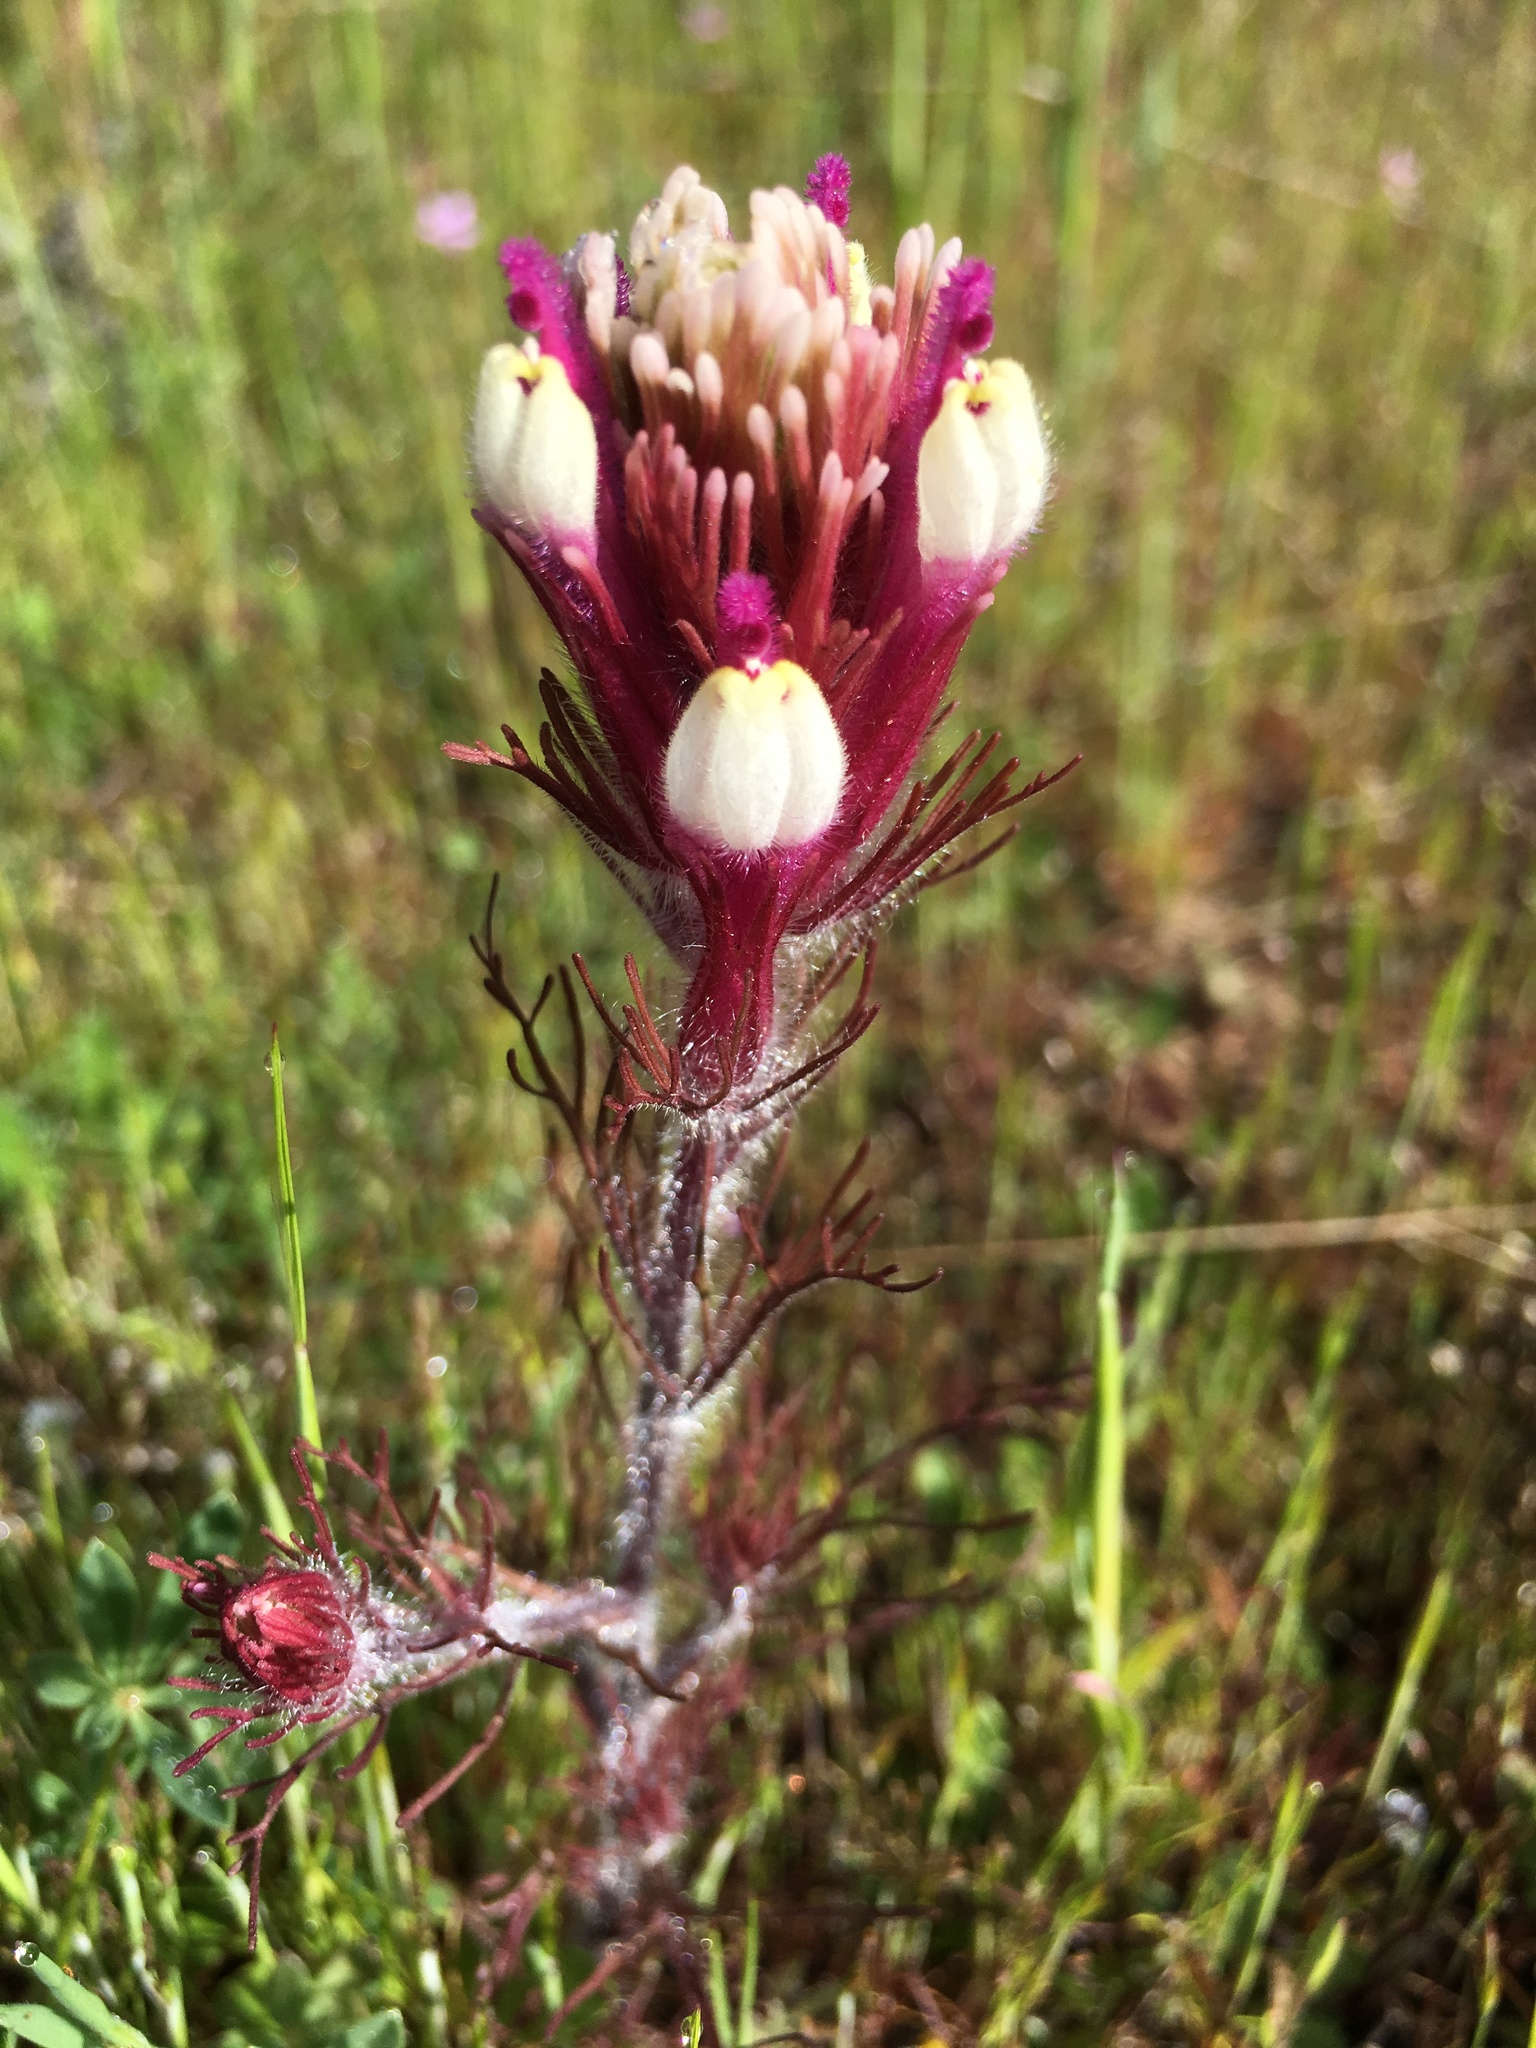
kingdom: Plantae
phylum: Tracheophyta
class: Magnoliopsida
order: Lamiales
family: Orobanchaceae
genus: Castilleja
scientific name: Castilleja exserta
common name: Purple owl-clover
